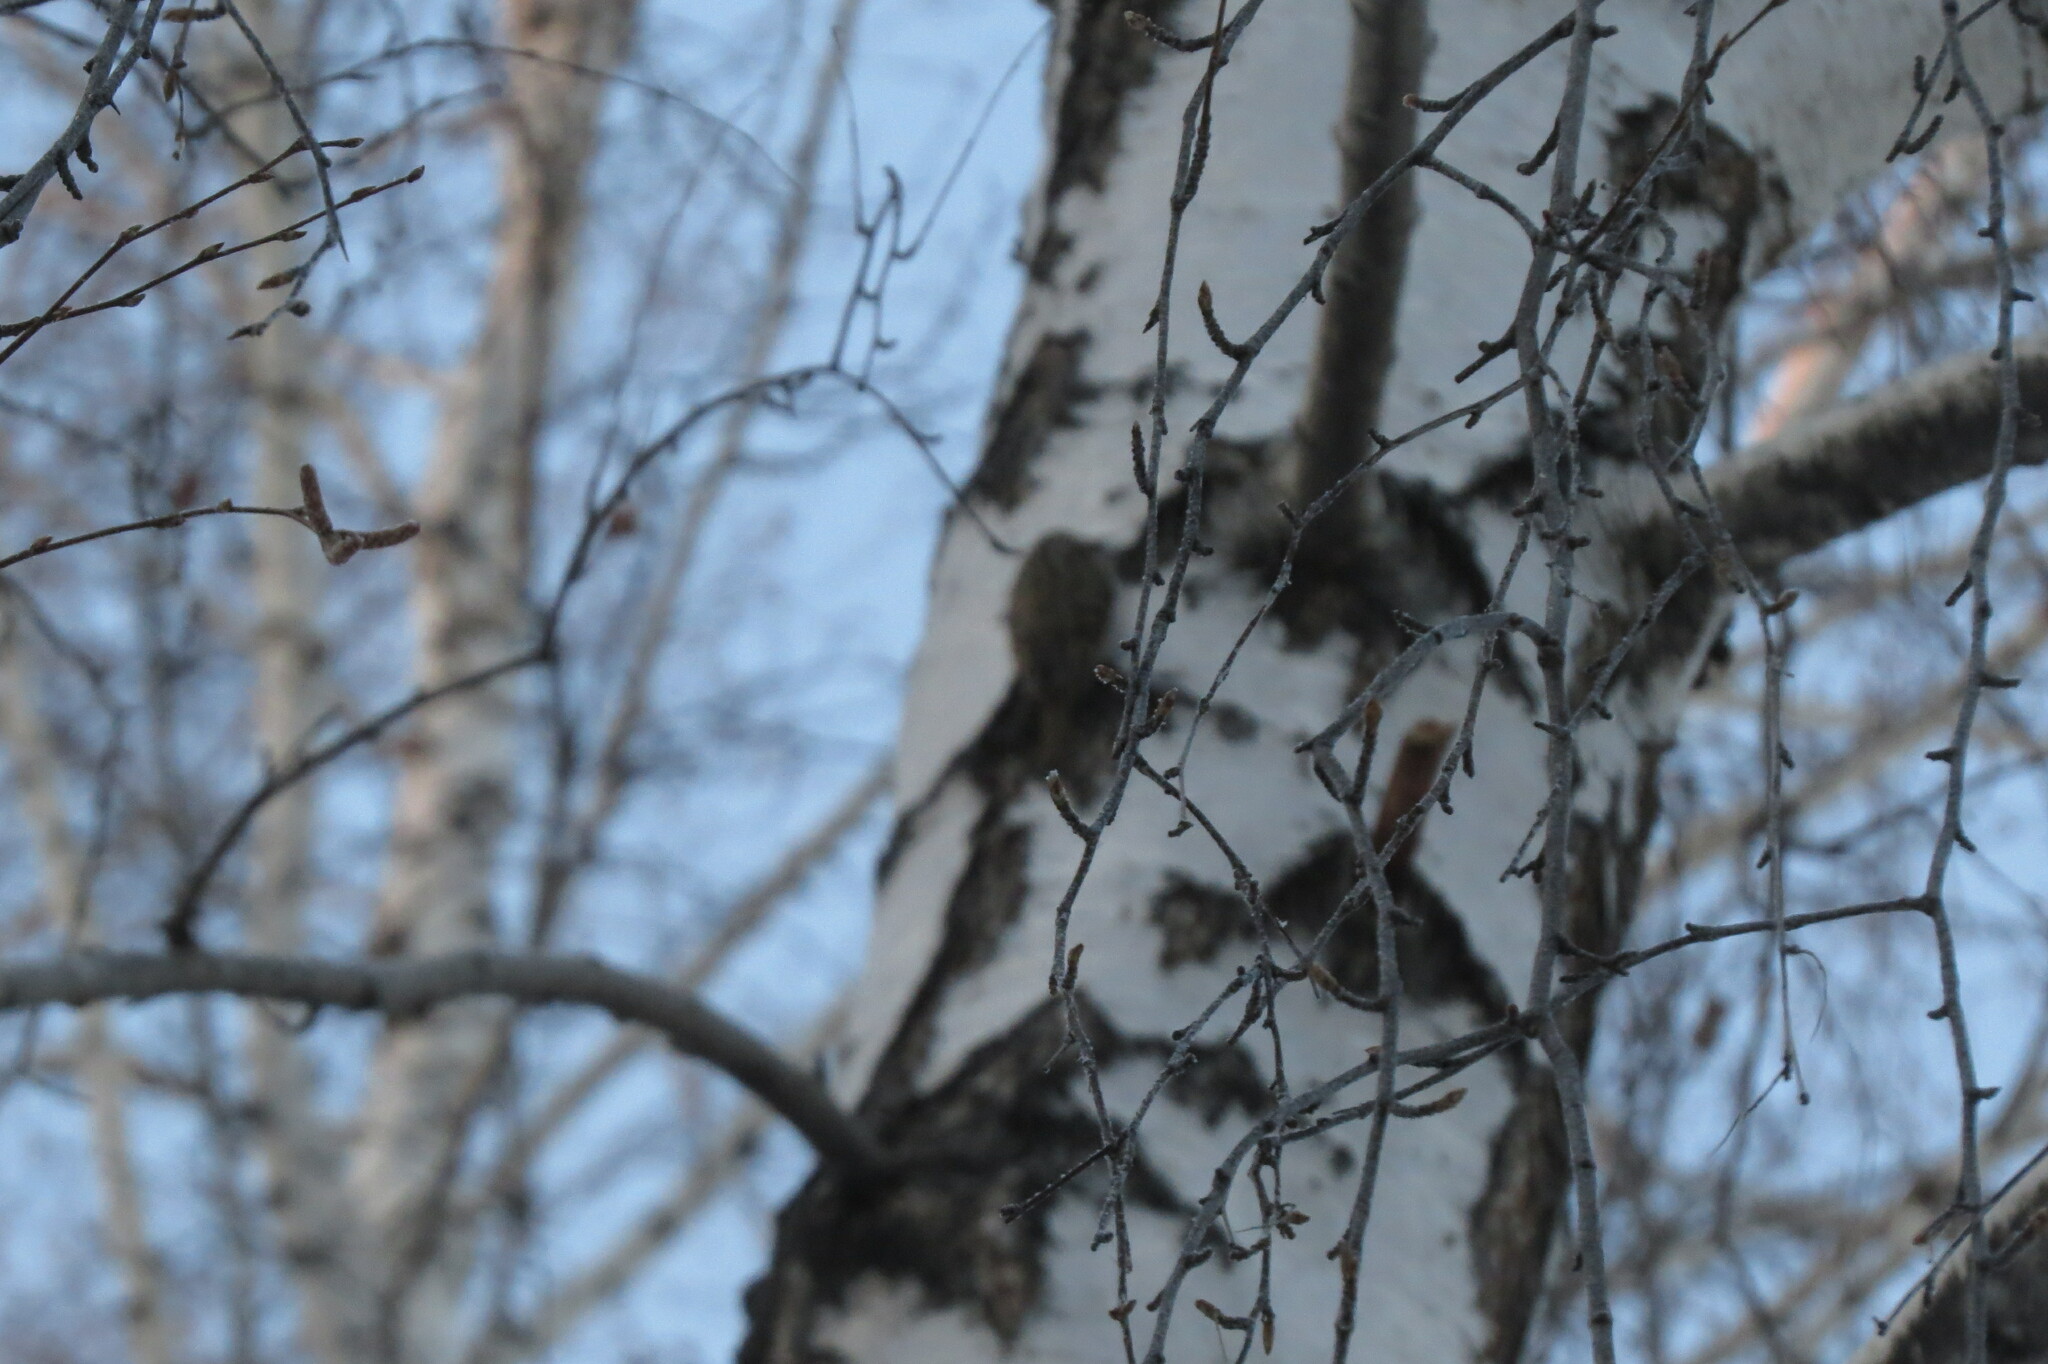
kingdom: Animalia
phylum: Chordata
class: Aves
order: Passeriformes
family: Certhiidae
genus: Certhia
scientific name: Certhia familiaris
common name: Eurasian treecreeper
